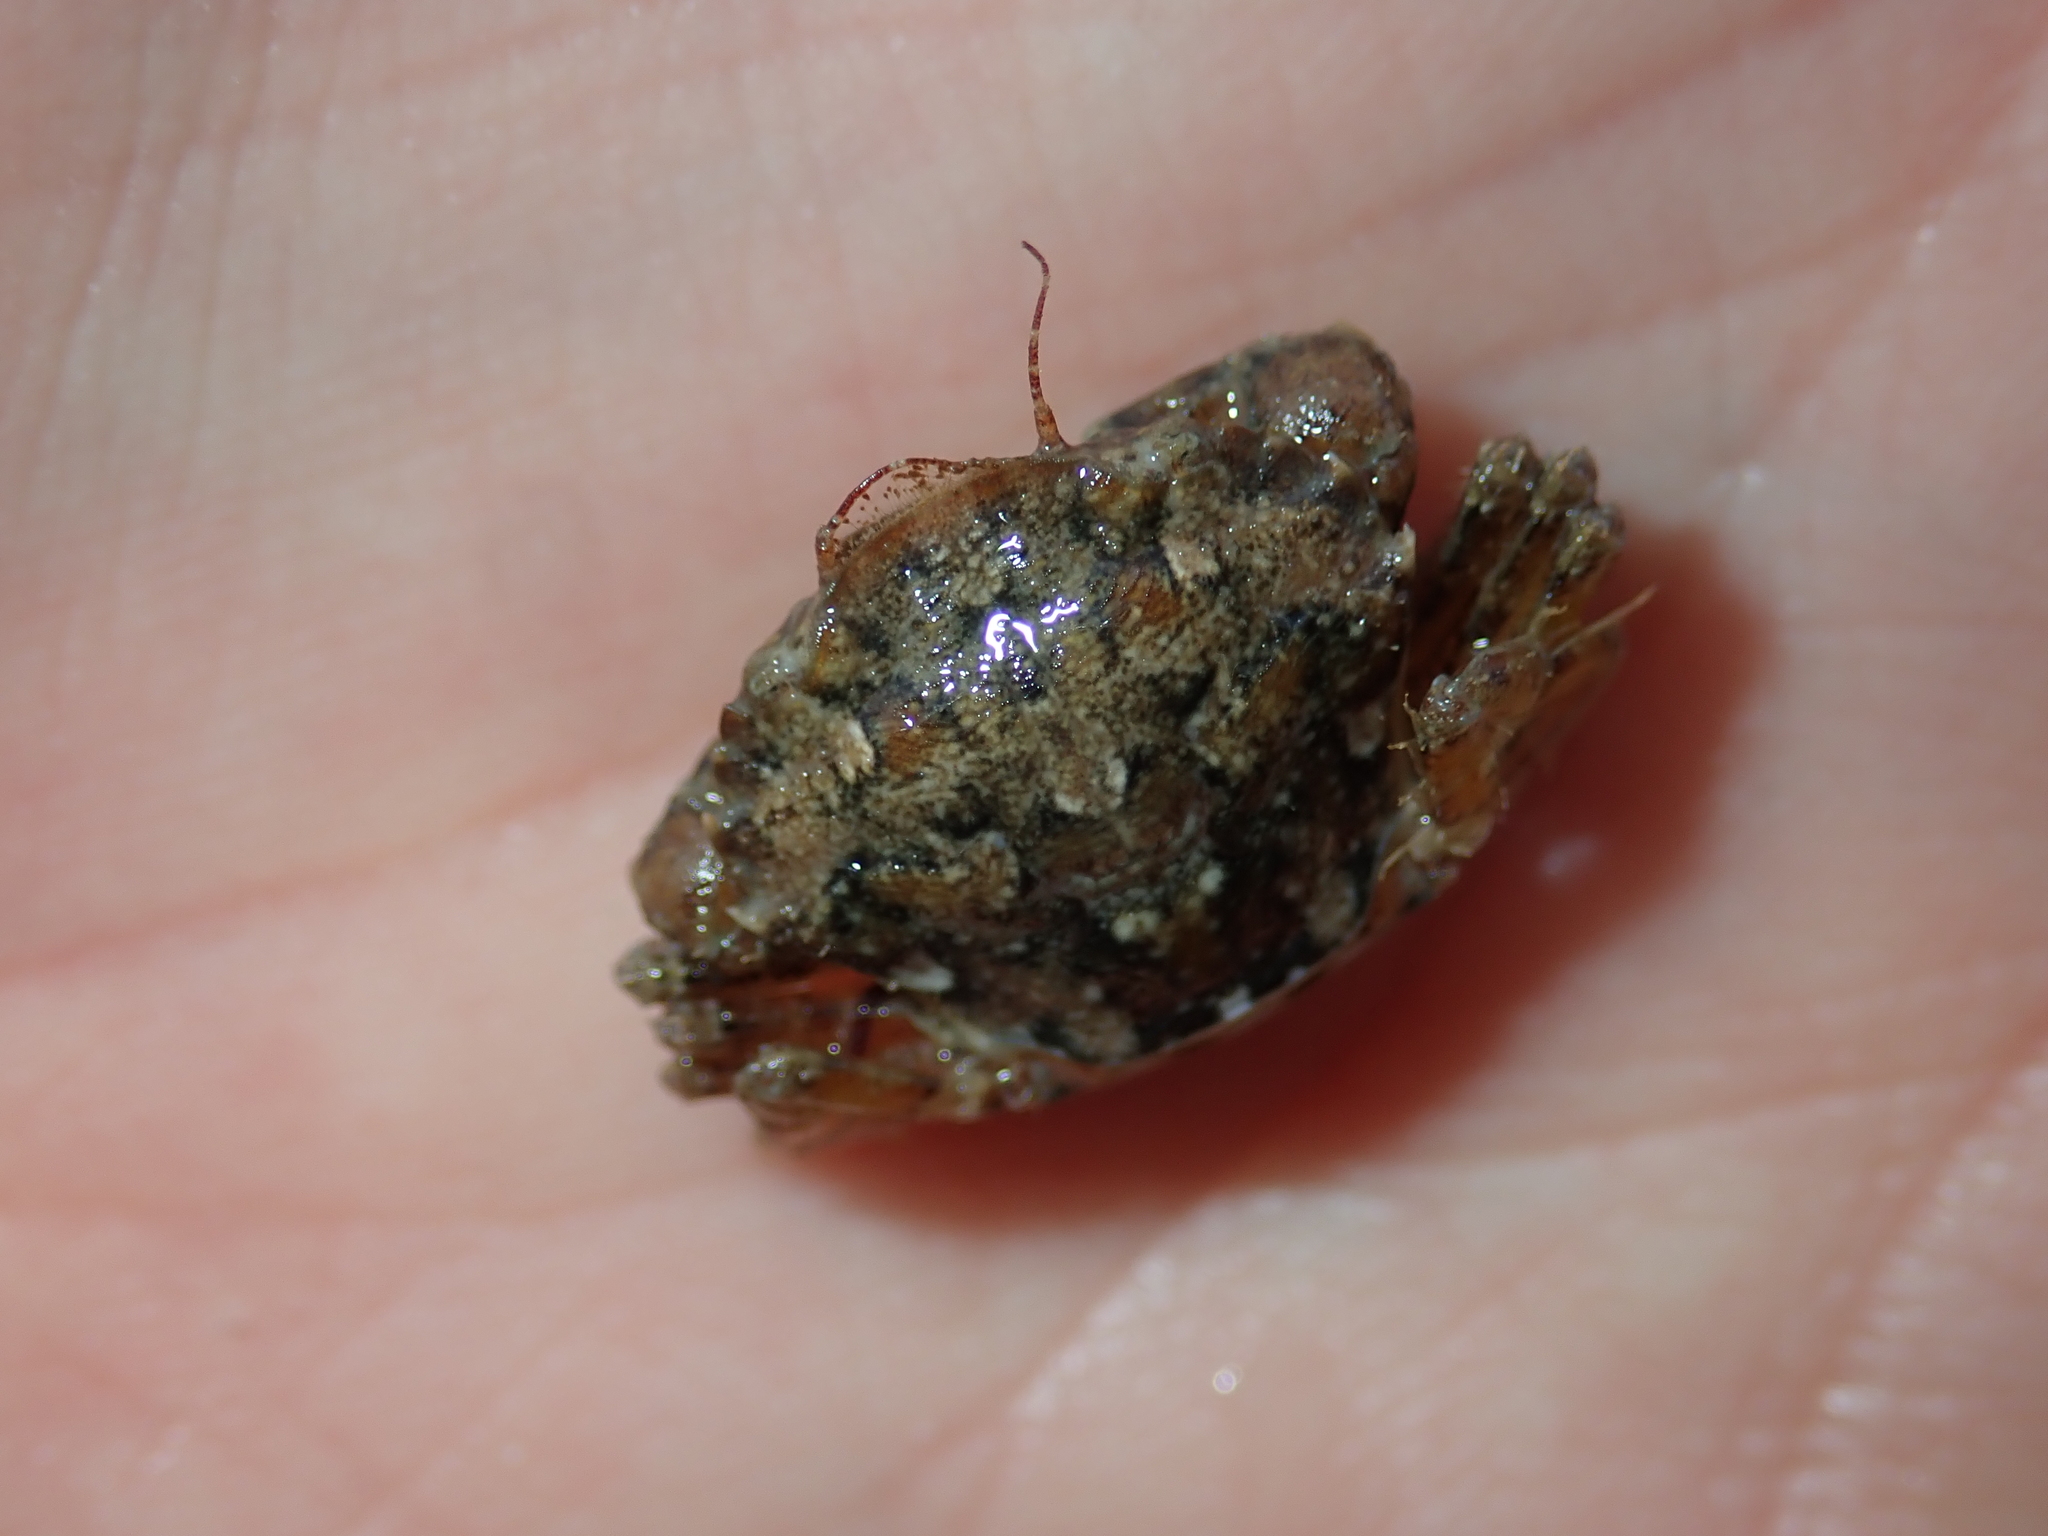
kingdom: Animalia
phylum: Arthropoda
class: Malacostraca
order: Decapoda
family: Polybiidae
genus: Liocarcinus
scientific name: Liocarcinus navigator
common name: Arch-fronted swimming crab
